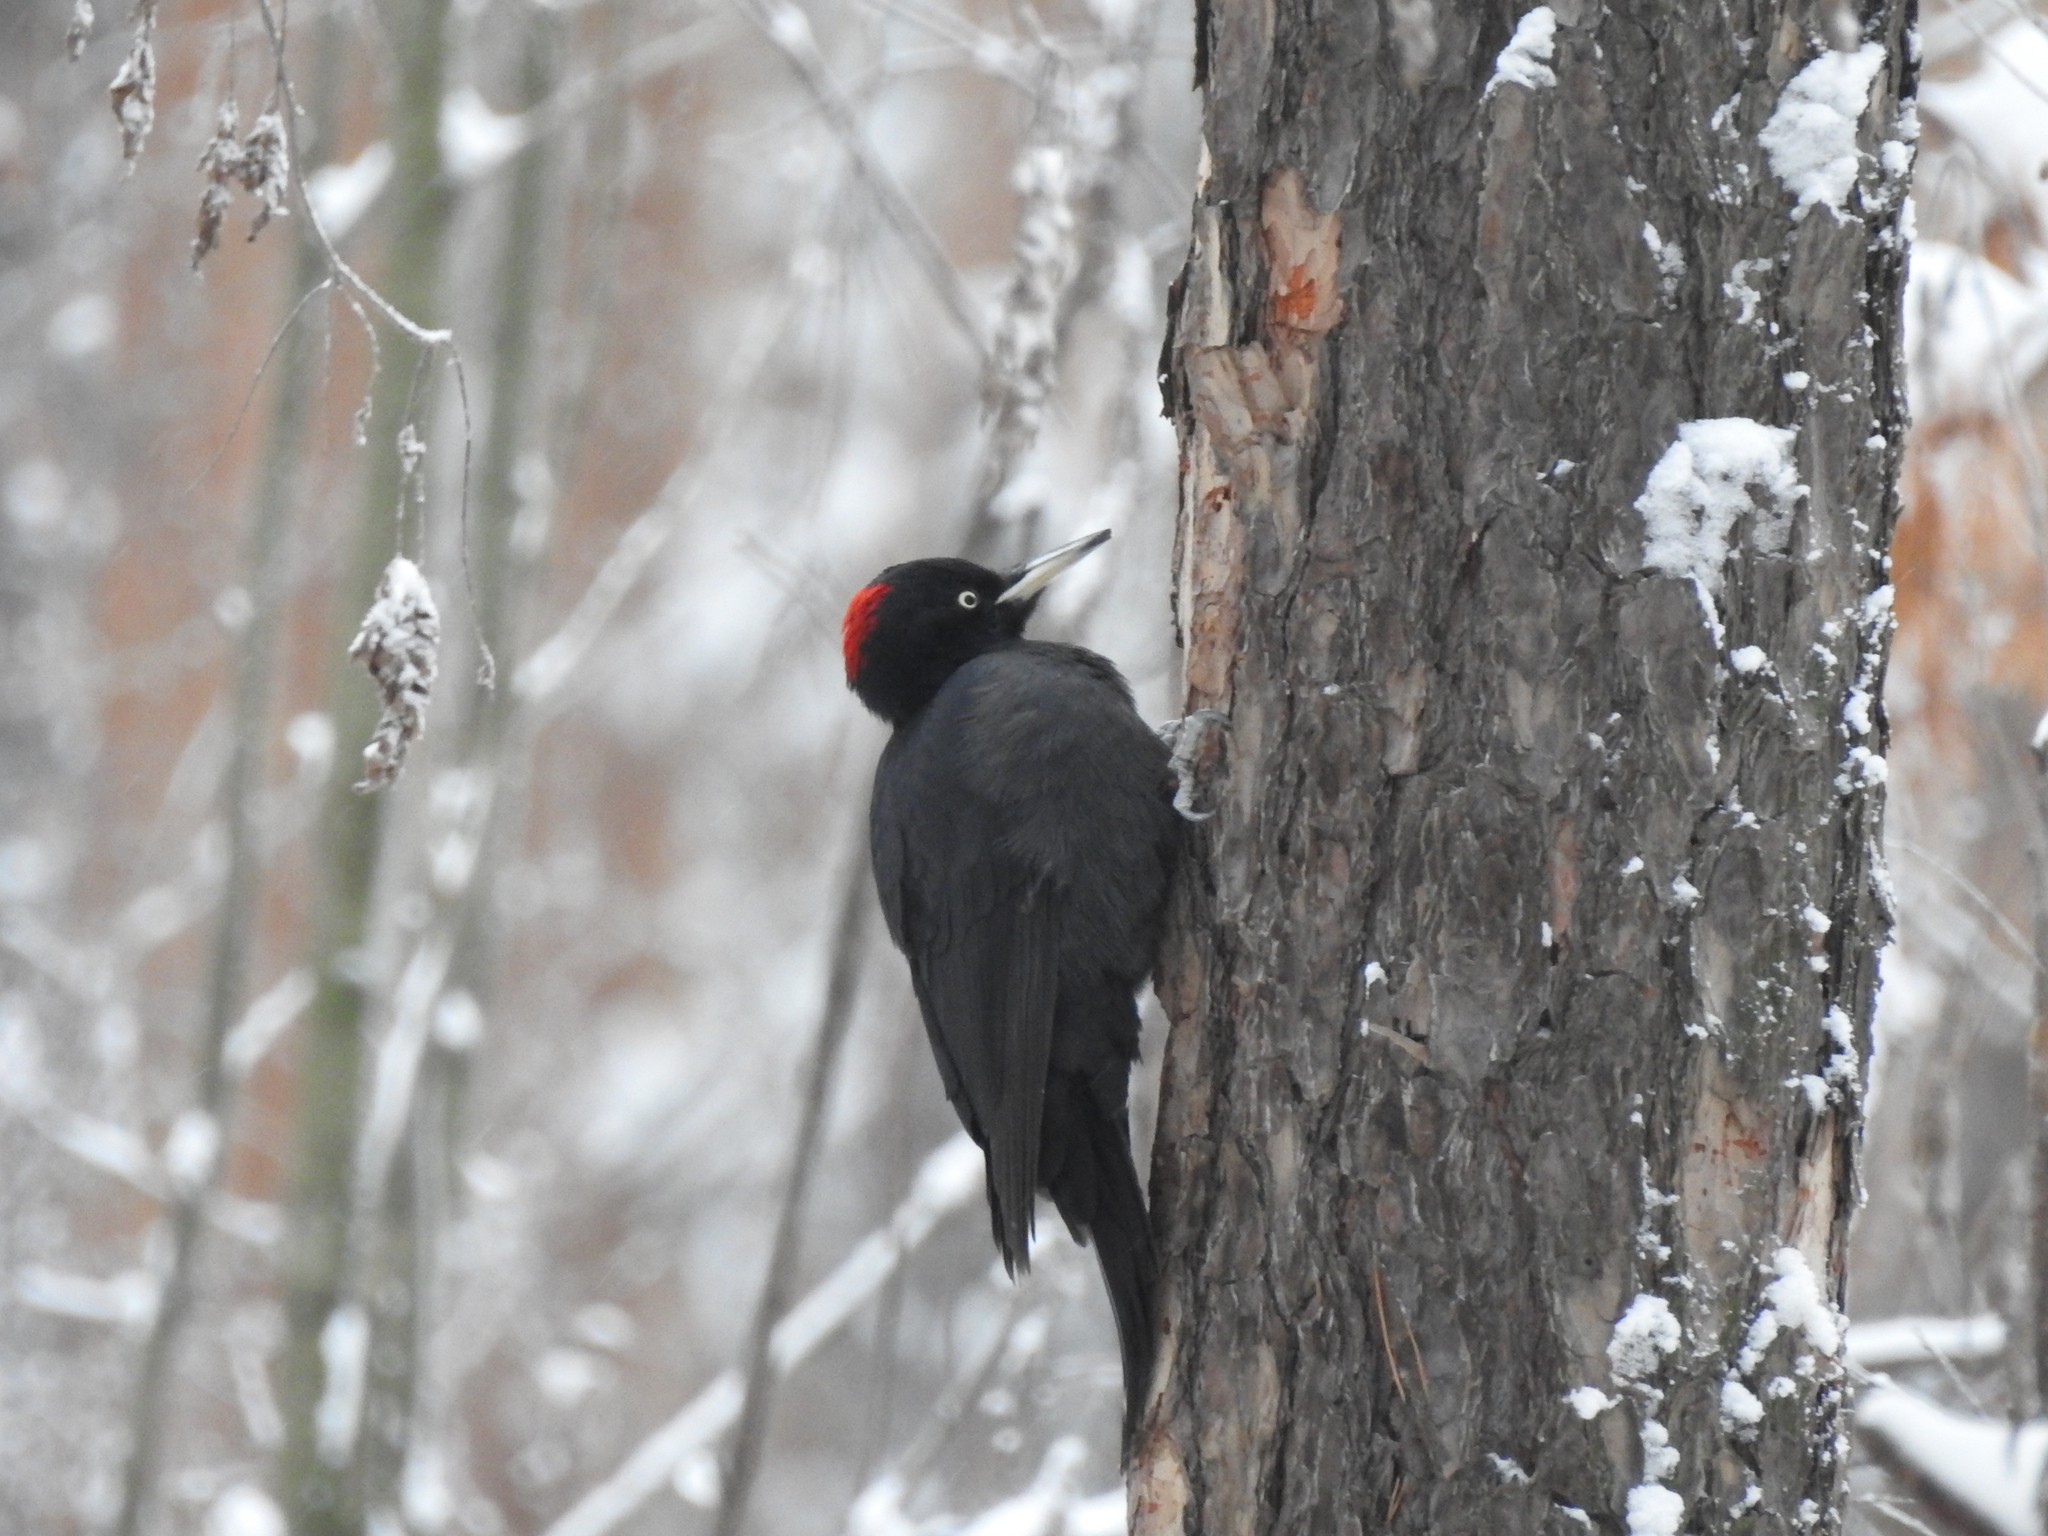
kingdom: Animalia
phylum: Chordata
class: Aves
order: Piciformes
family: Picidae
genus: Dryocopus
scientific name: Dryocopus martius
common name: Black woodpecker
